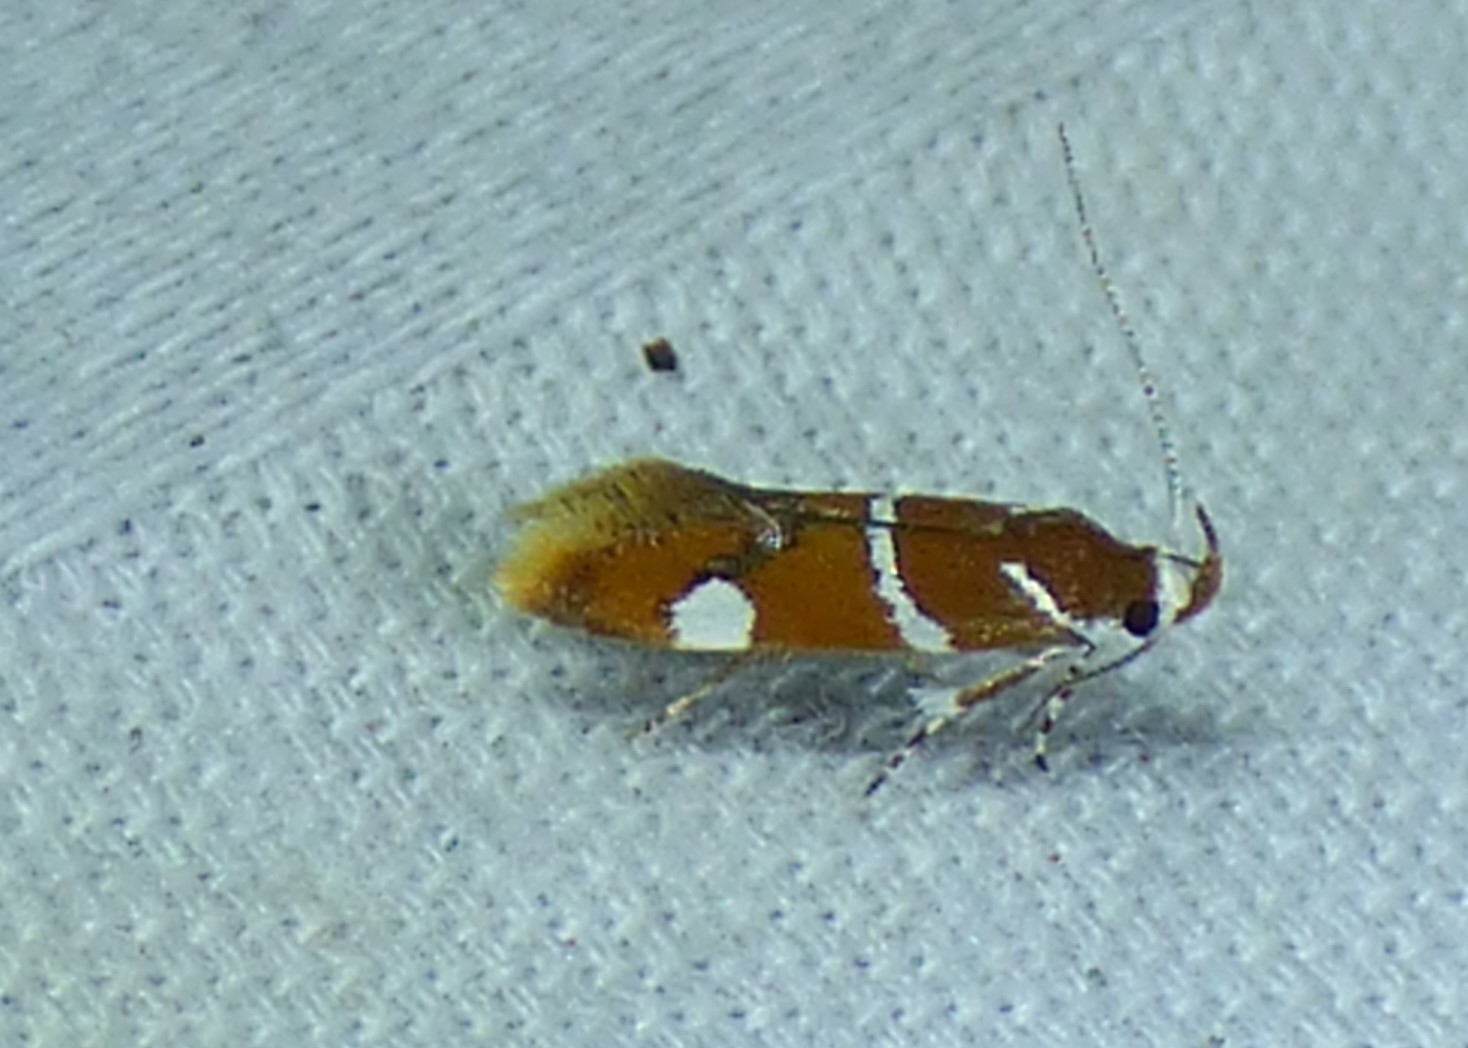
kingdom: Animalia
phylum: Arthropoda
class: Insecta
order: Lepidoptera
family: Oecophoridae
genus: Promalactis
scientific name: Promalactis suzukiella
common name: Moth
